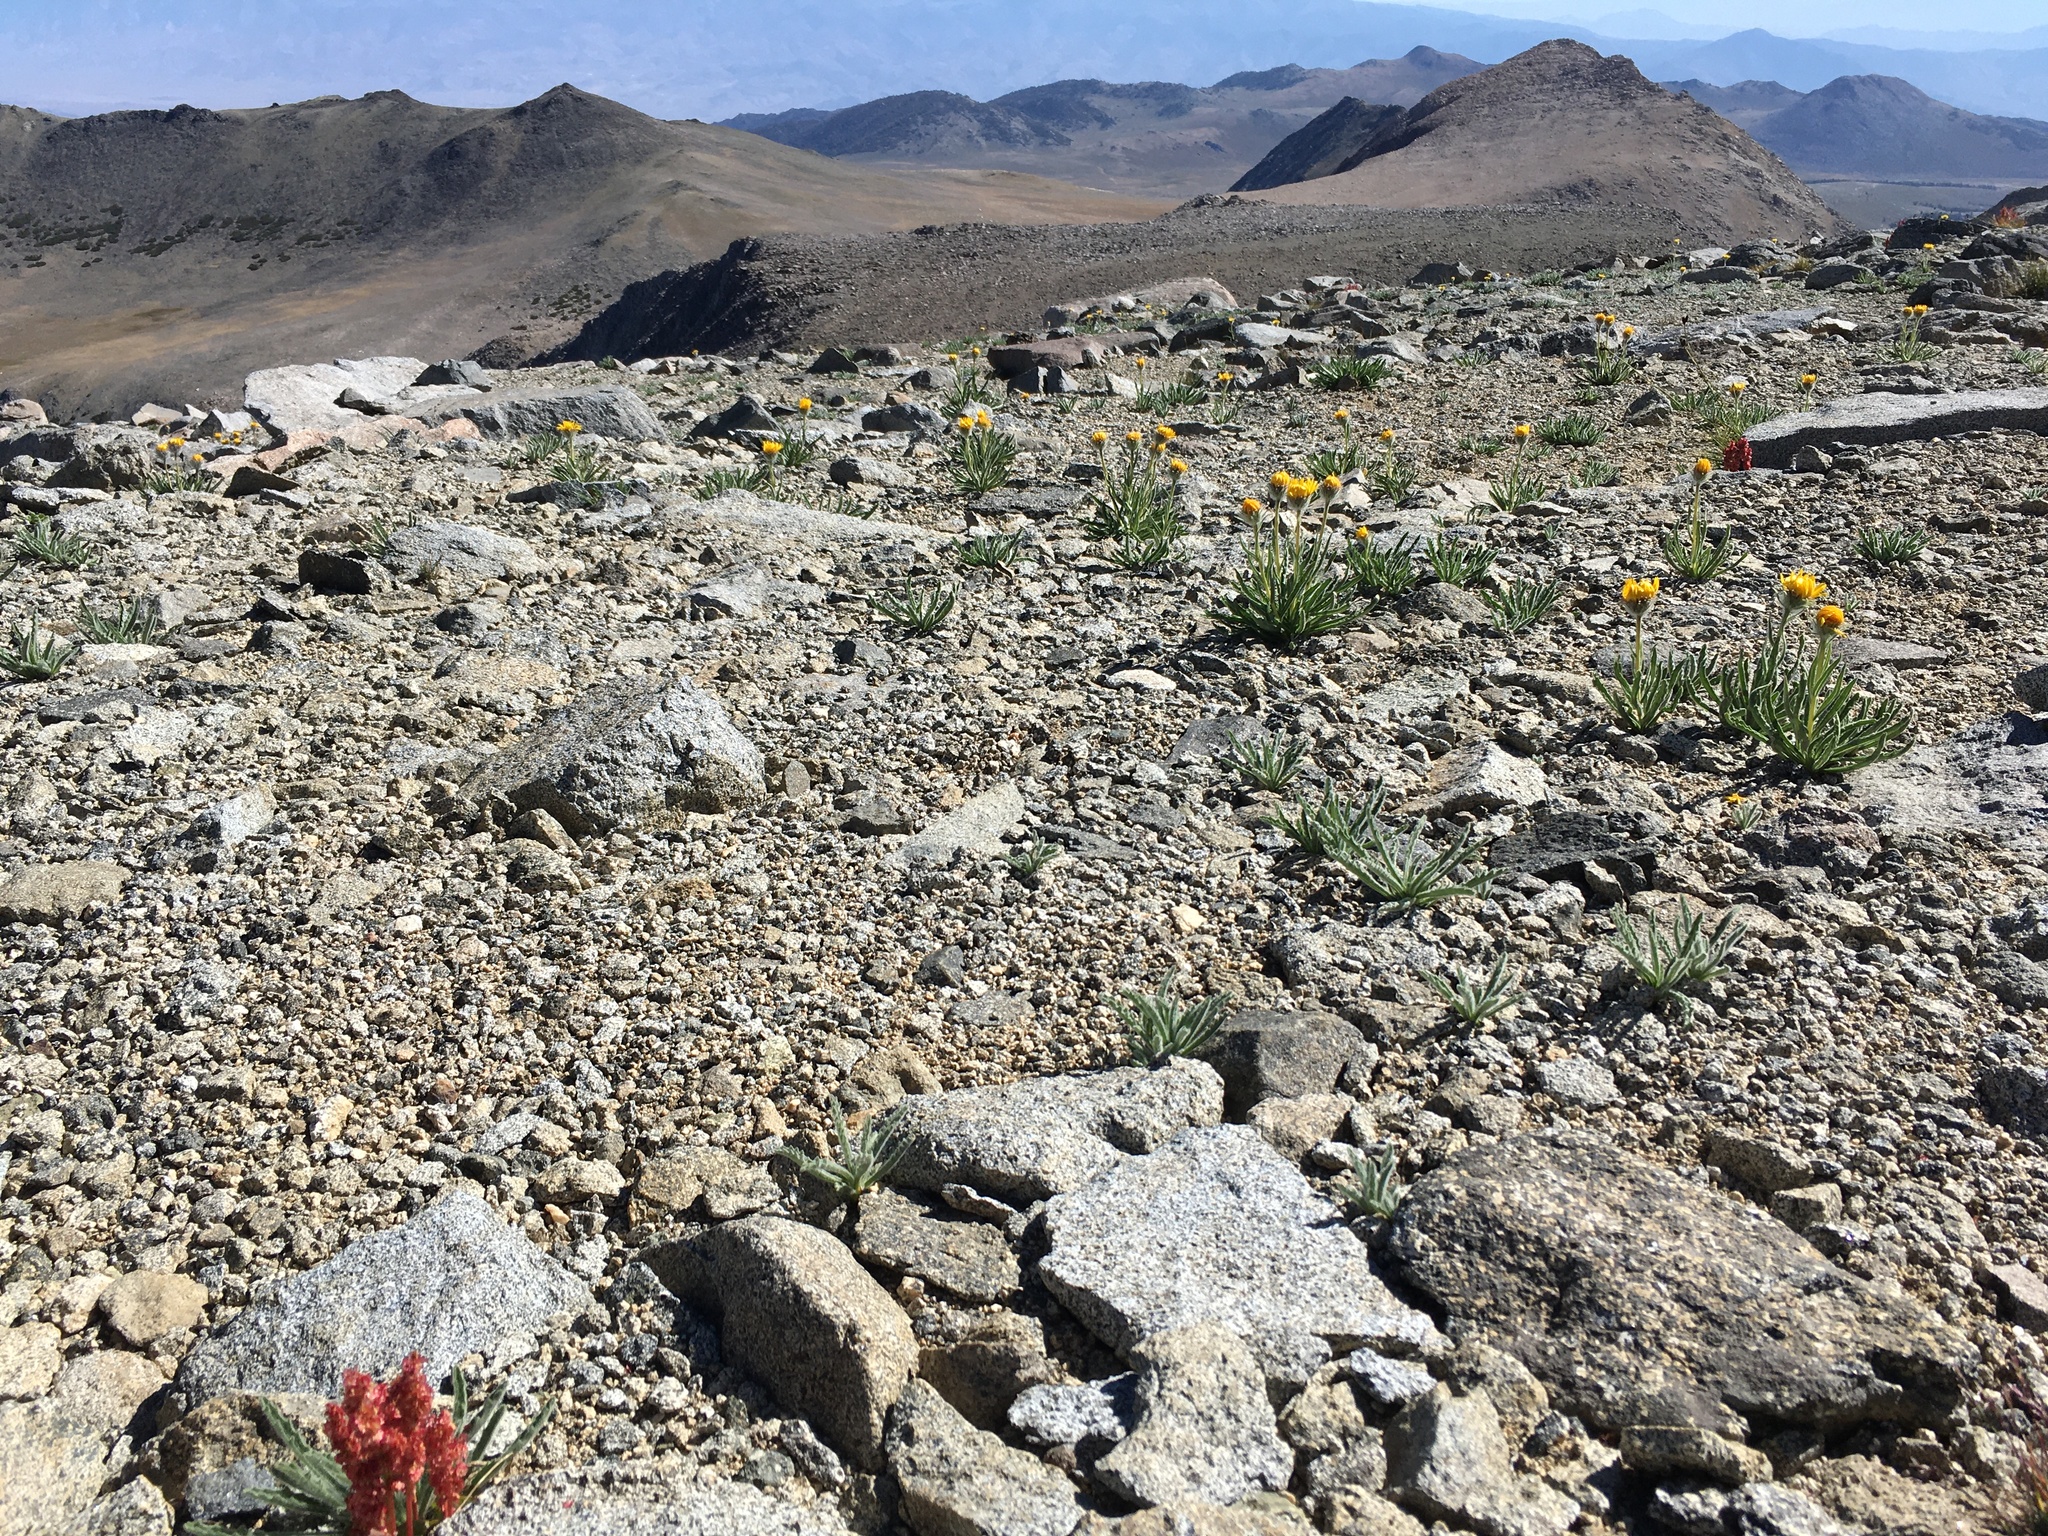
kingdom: Plantae
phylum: Tracheophyta
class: Magnoliopsida
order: Asterales
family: Asteraceae
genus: Hulsea
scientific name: Hulsea algida
